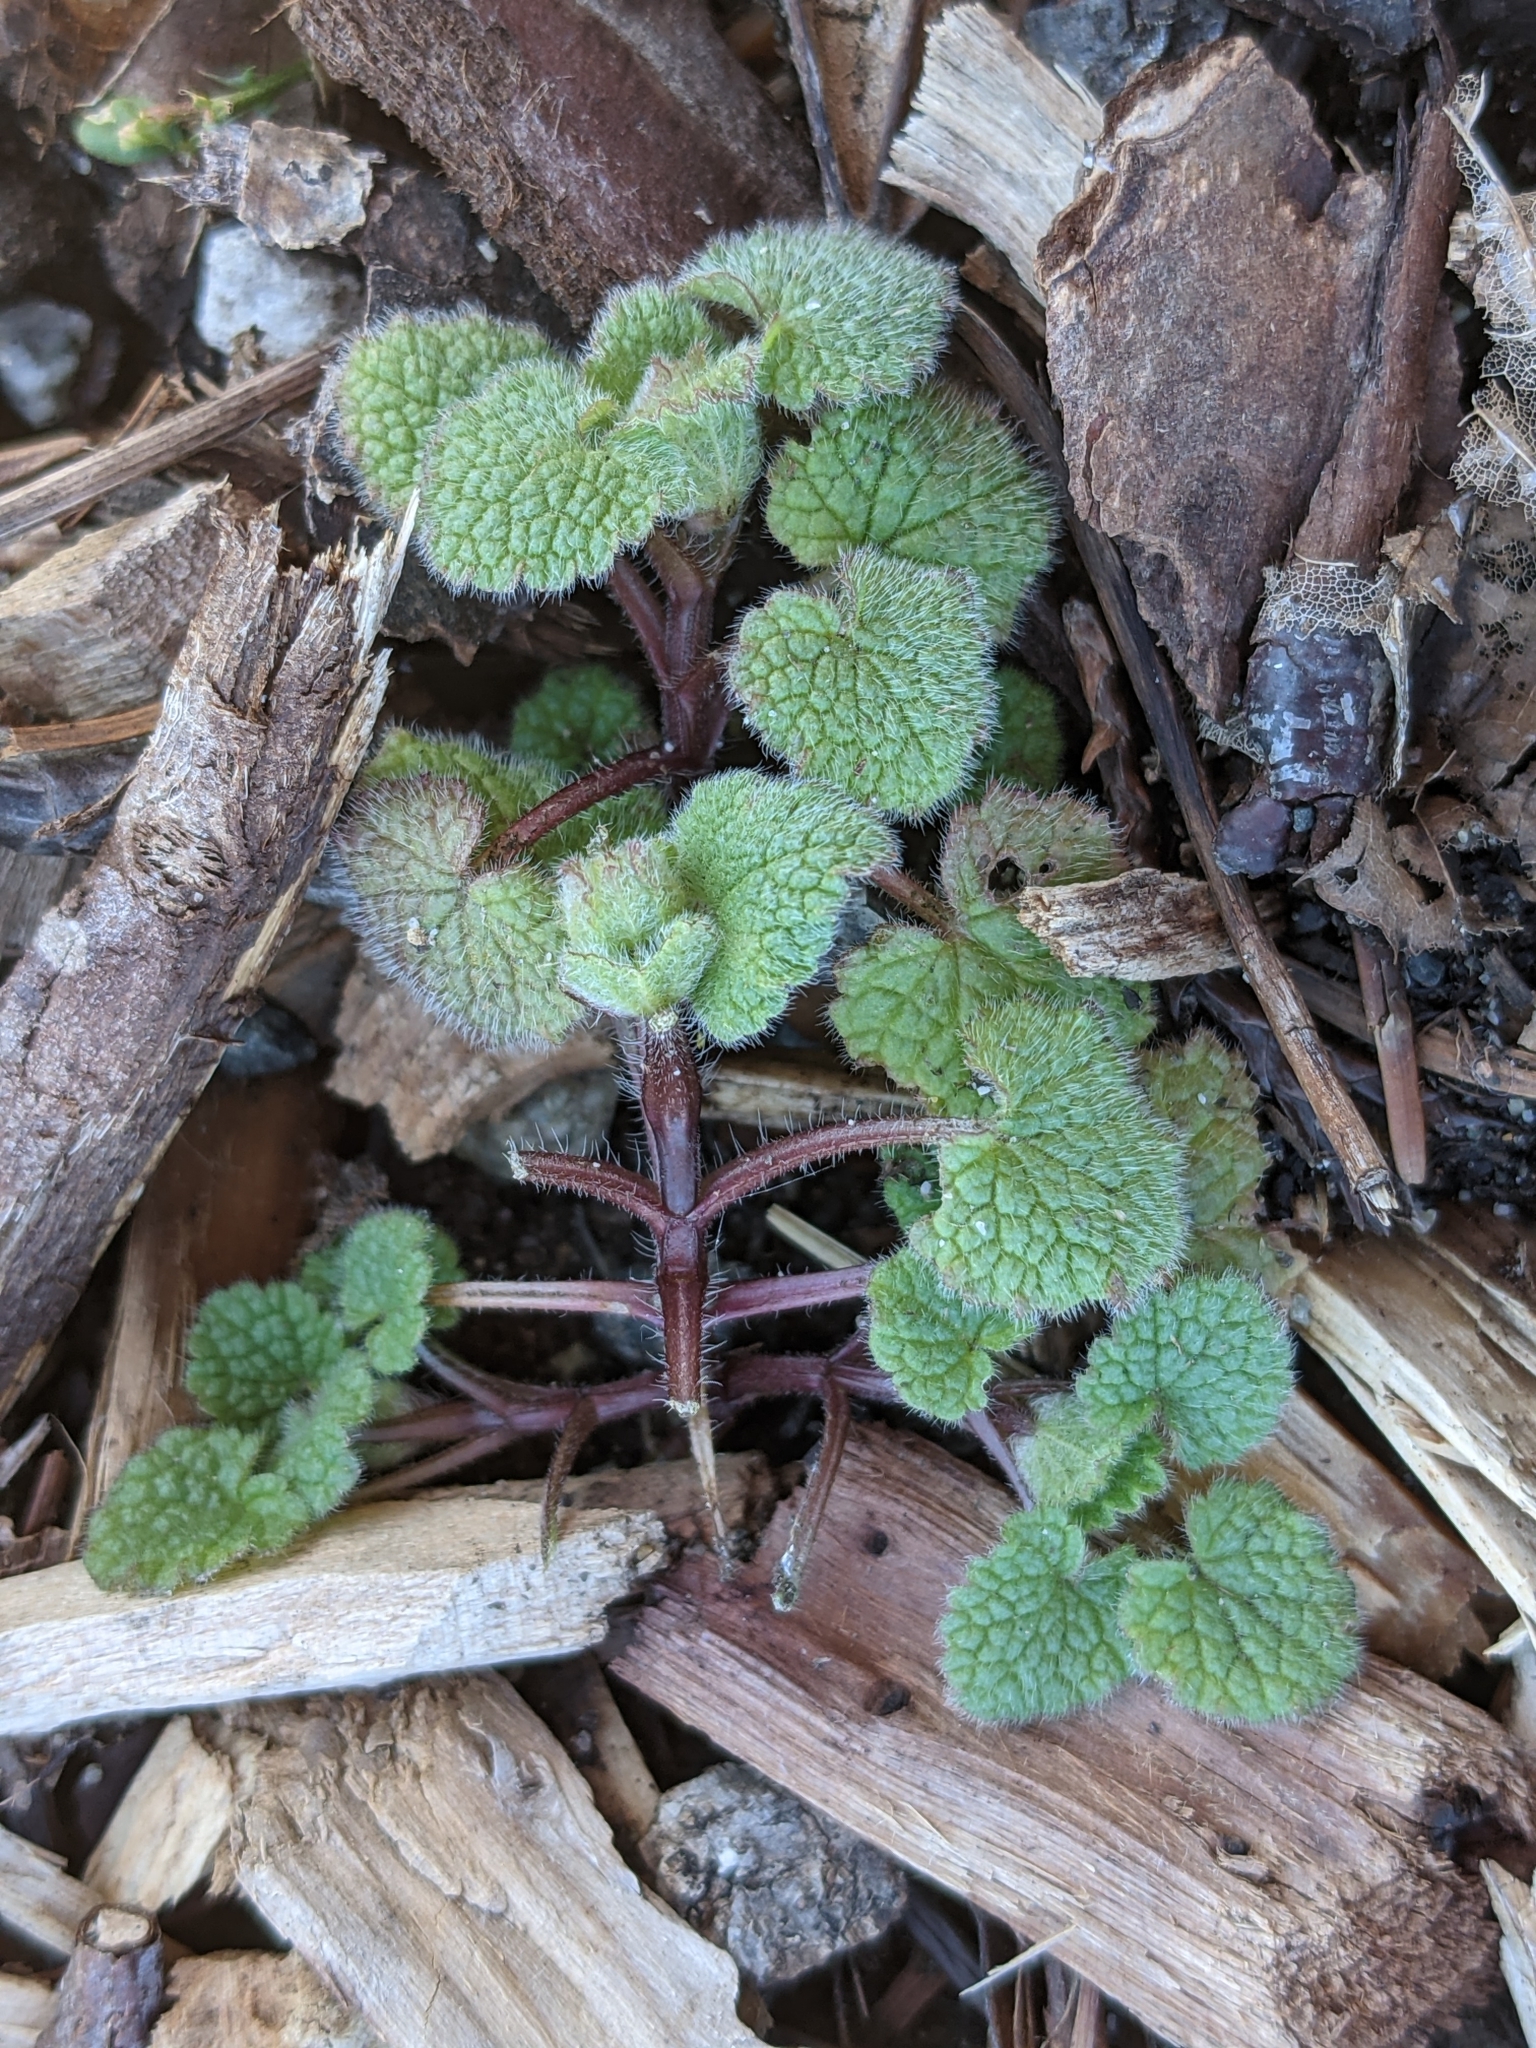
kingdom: Plantae
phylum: Tracheophyta
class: Magnoliopsida
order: Lamiales
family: Lamiaceae
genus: Lamium
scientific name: Lamium purpureum
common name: Red dead-nettle
